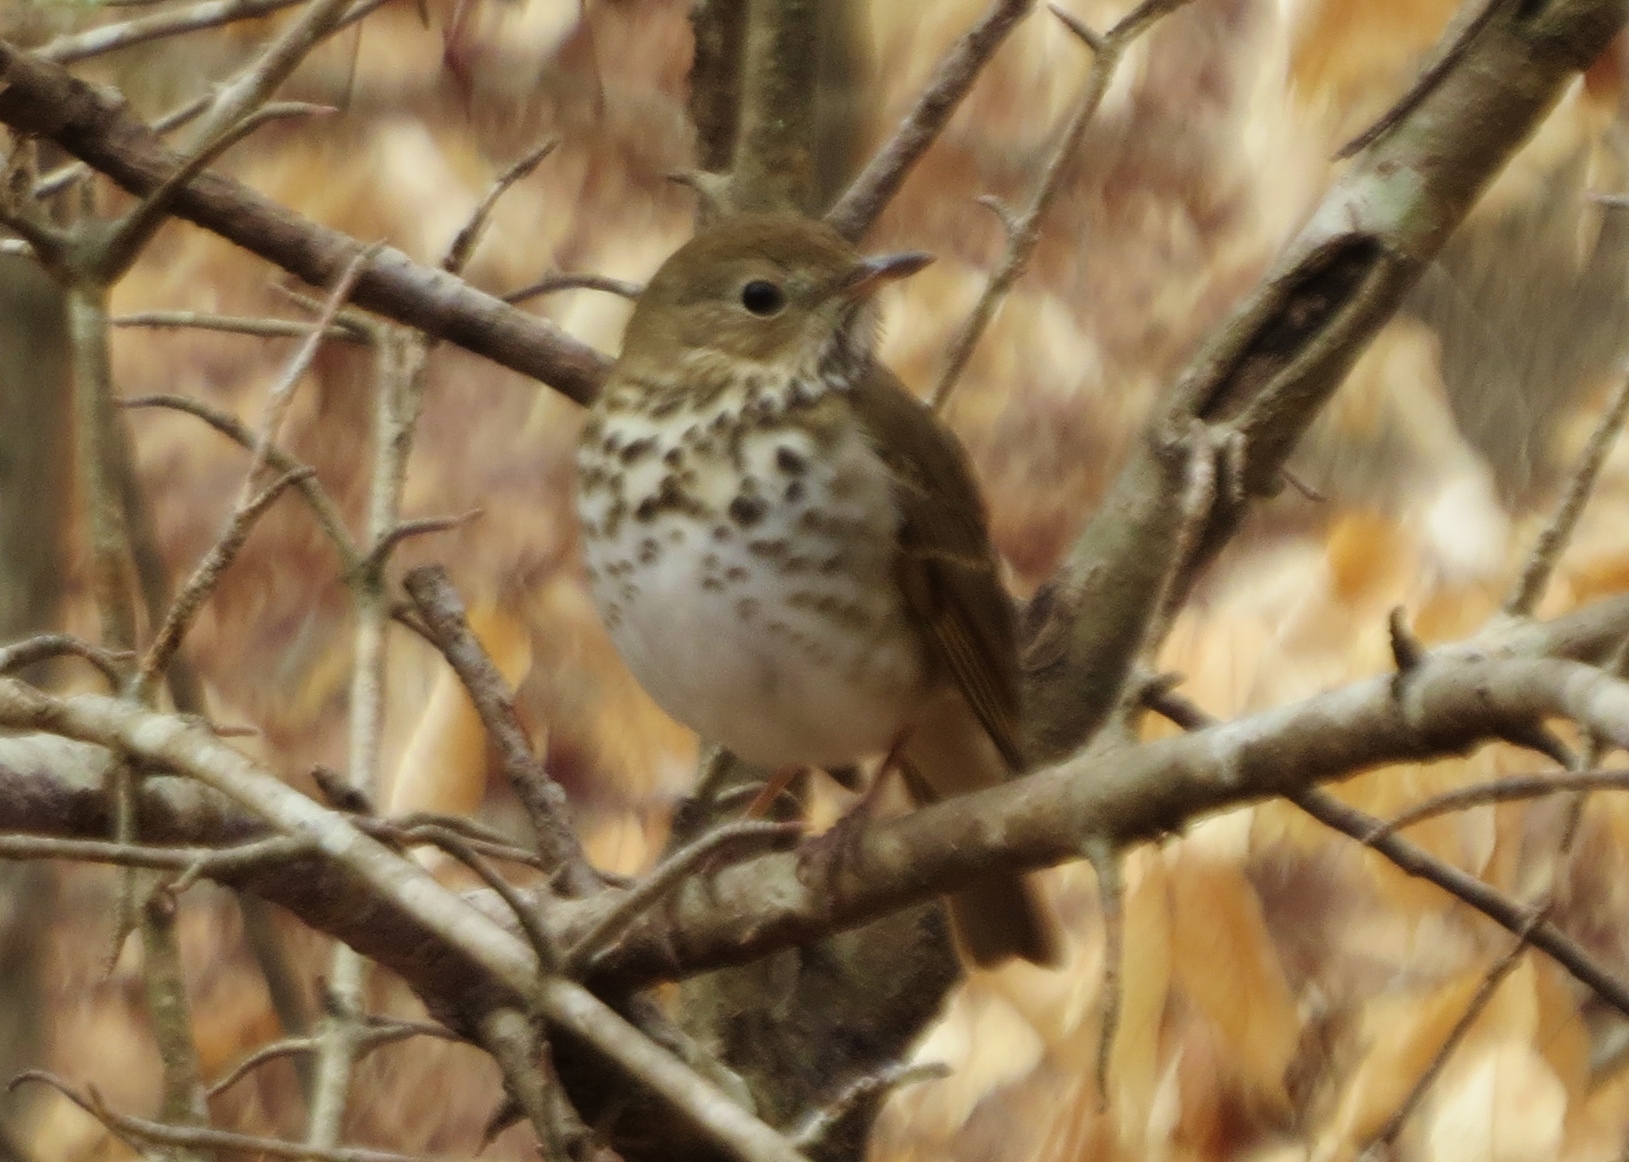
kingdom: Animalia
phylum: Chordata
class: Aves
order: Passeriformes
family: Turdidae
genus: Catharus
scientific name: Catharus guttatus
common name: Hermit thrush
